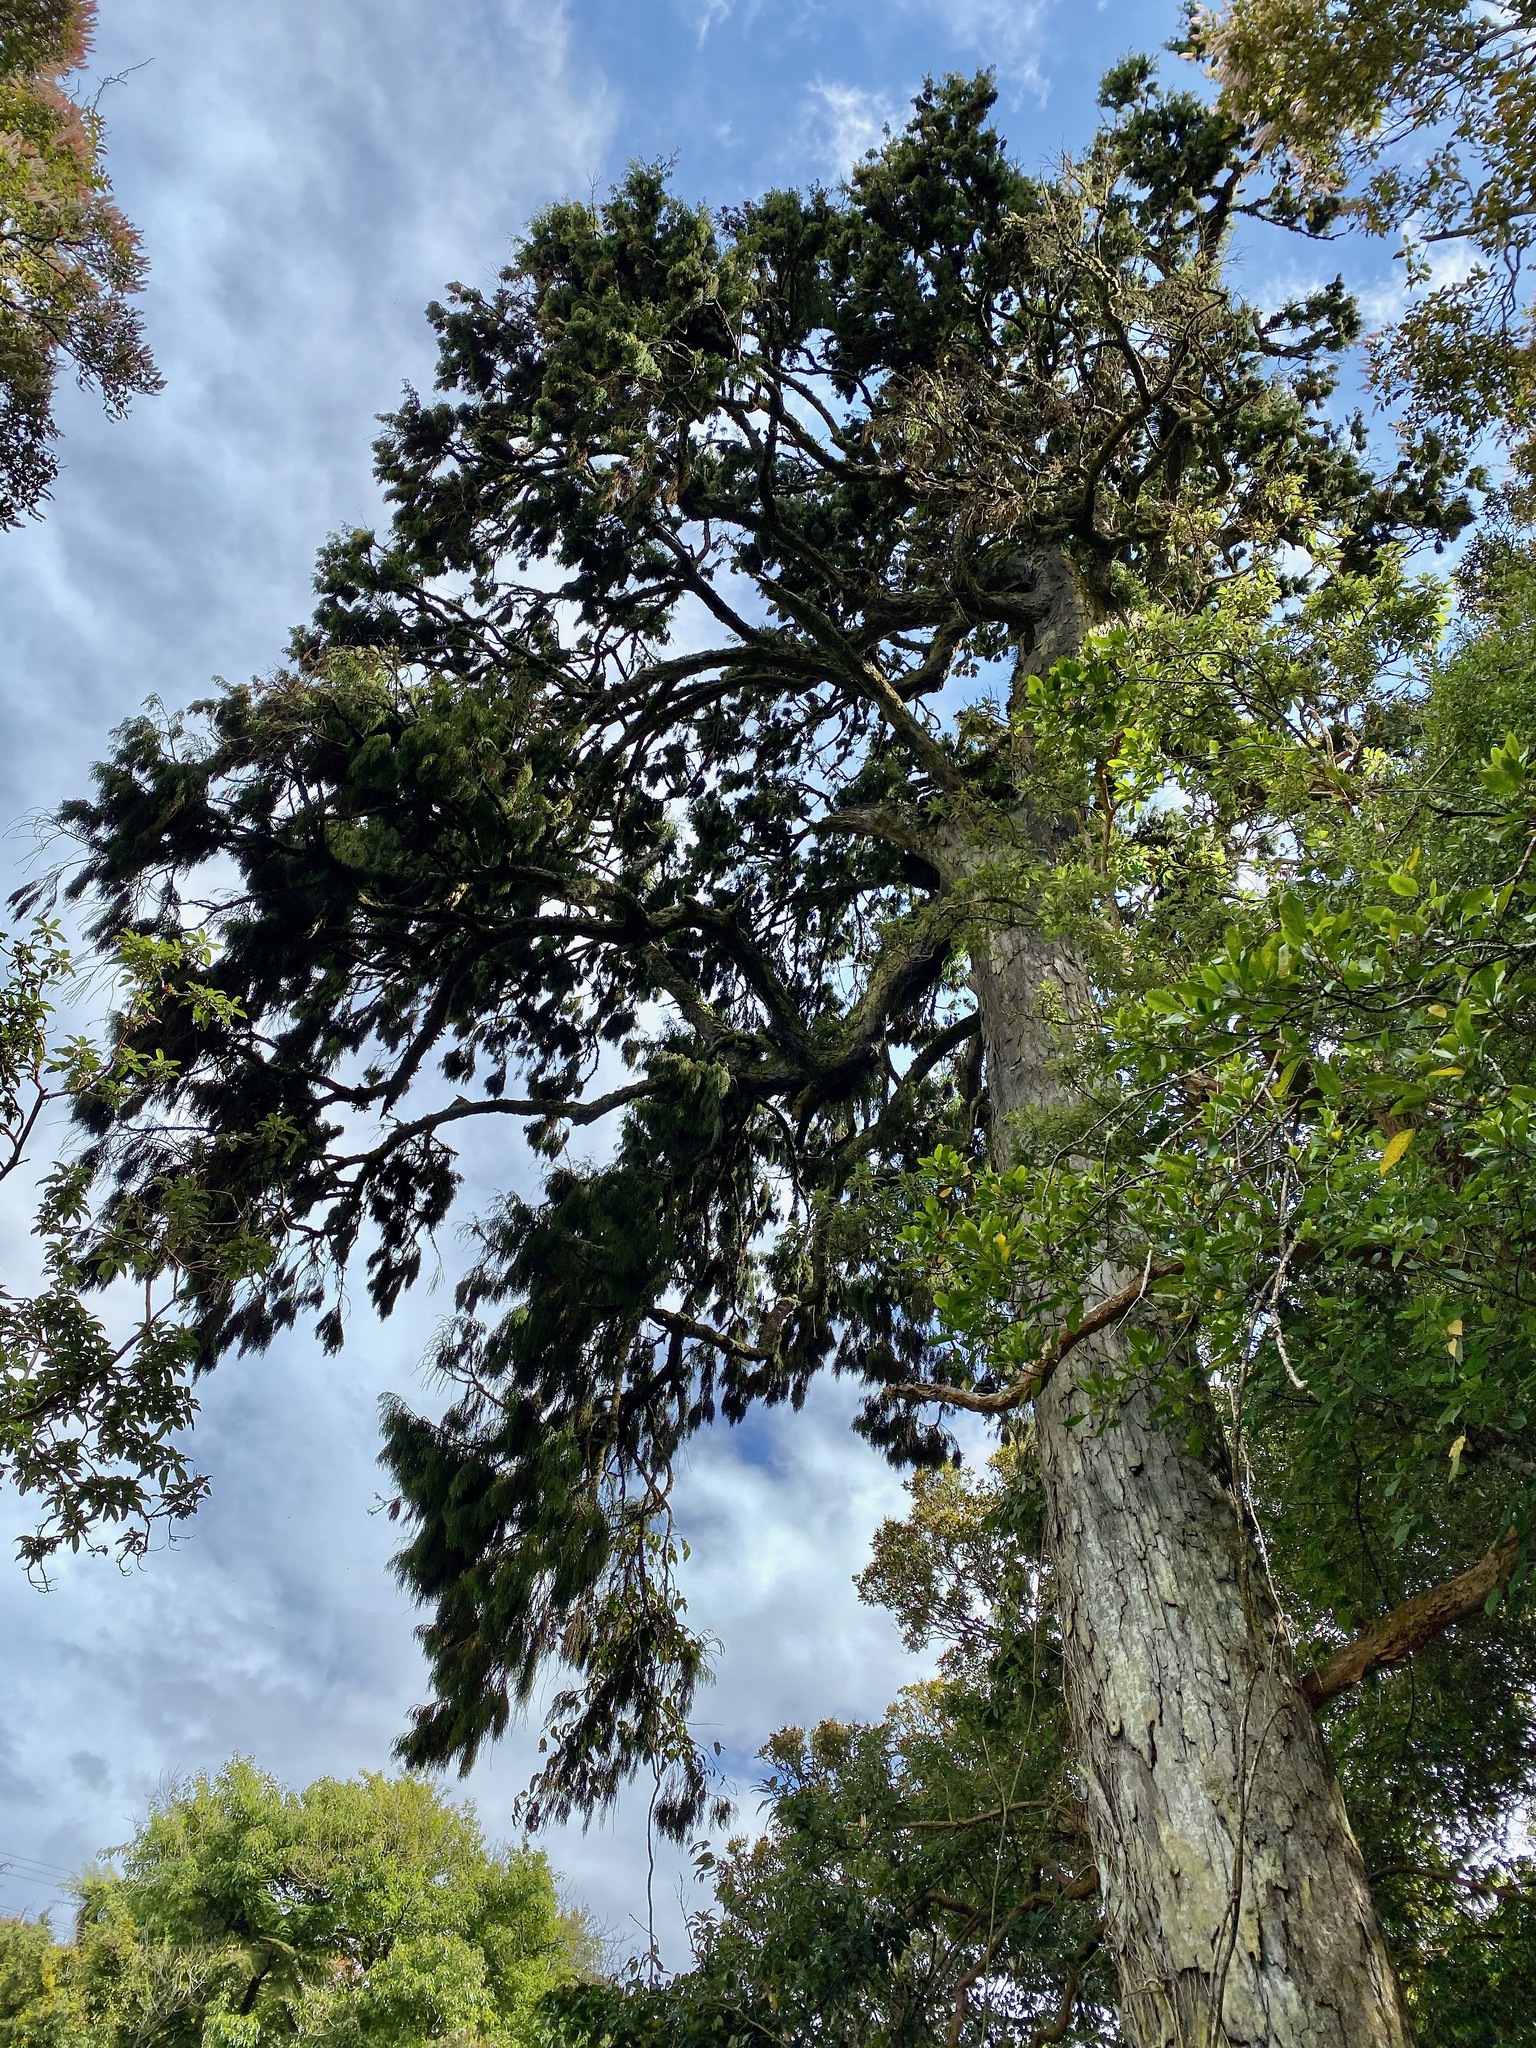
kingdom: Plantae
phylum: Tracheophyta
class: Pinopsida
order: Pinales
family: Podocarpaceae
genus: Dacrydium
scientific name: Dacrydium cupressinum
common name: Red pine
